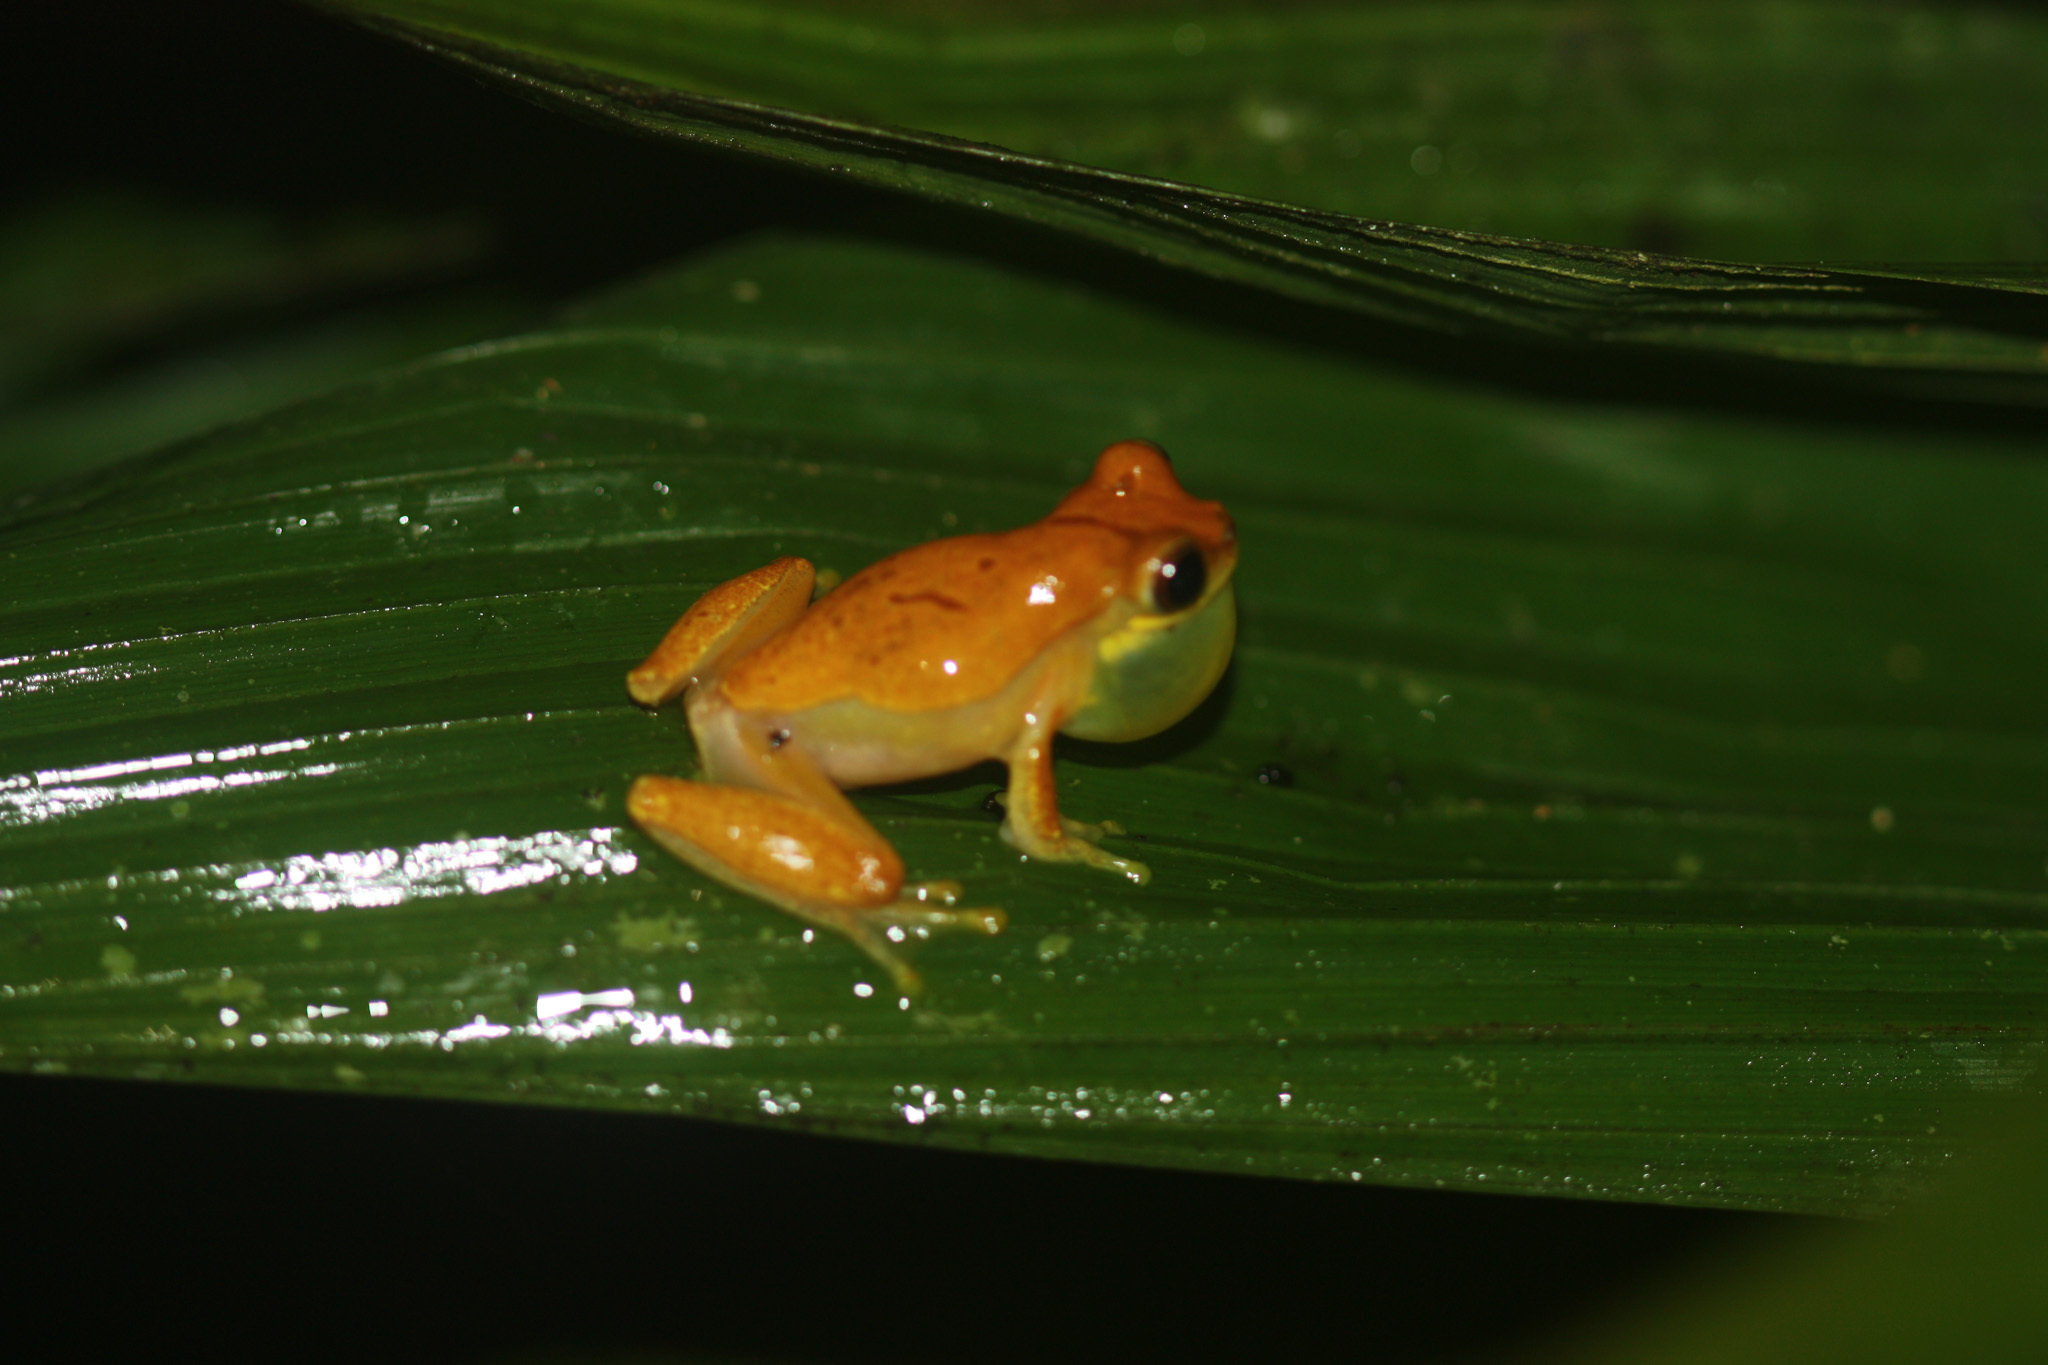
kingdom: Animalia
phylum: Chordata
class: Amphibia
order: Anura
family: Hylidae
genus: Dendropsophus
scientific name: Dendropsophus ebraccatus
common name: Hourglass treefrog
